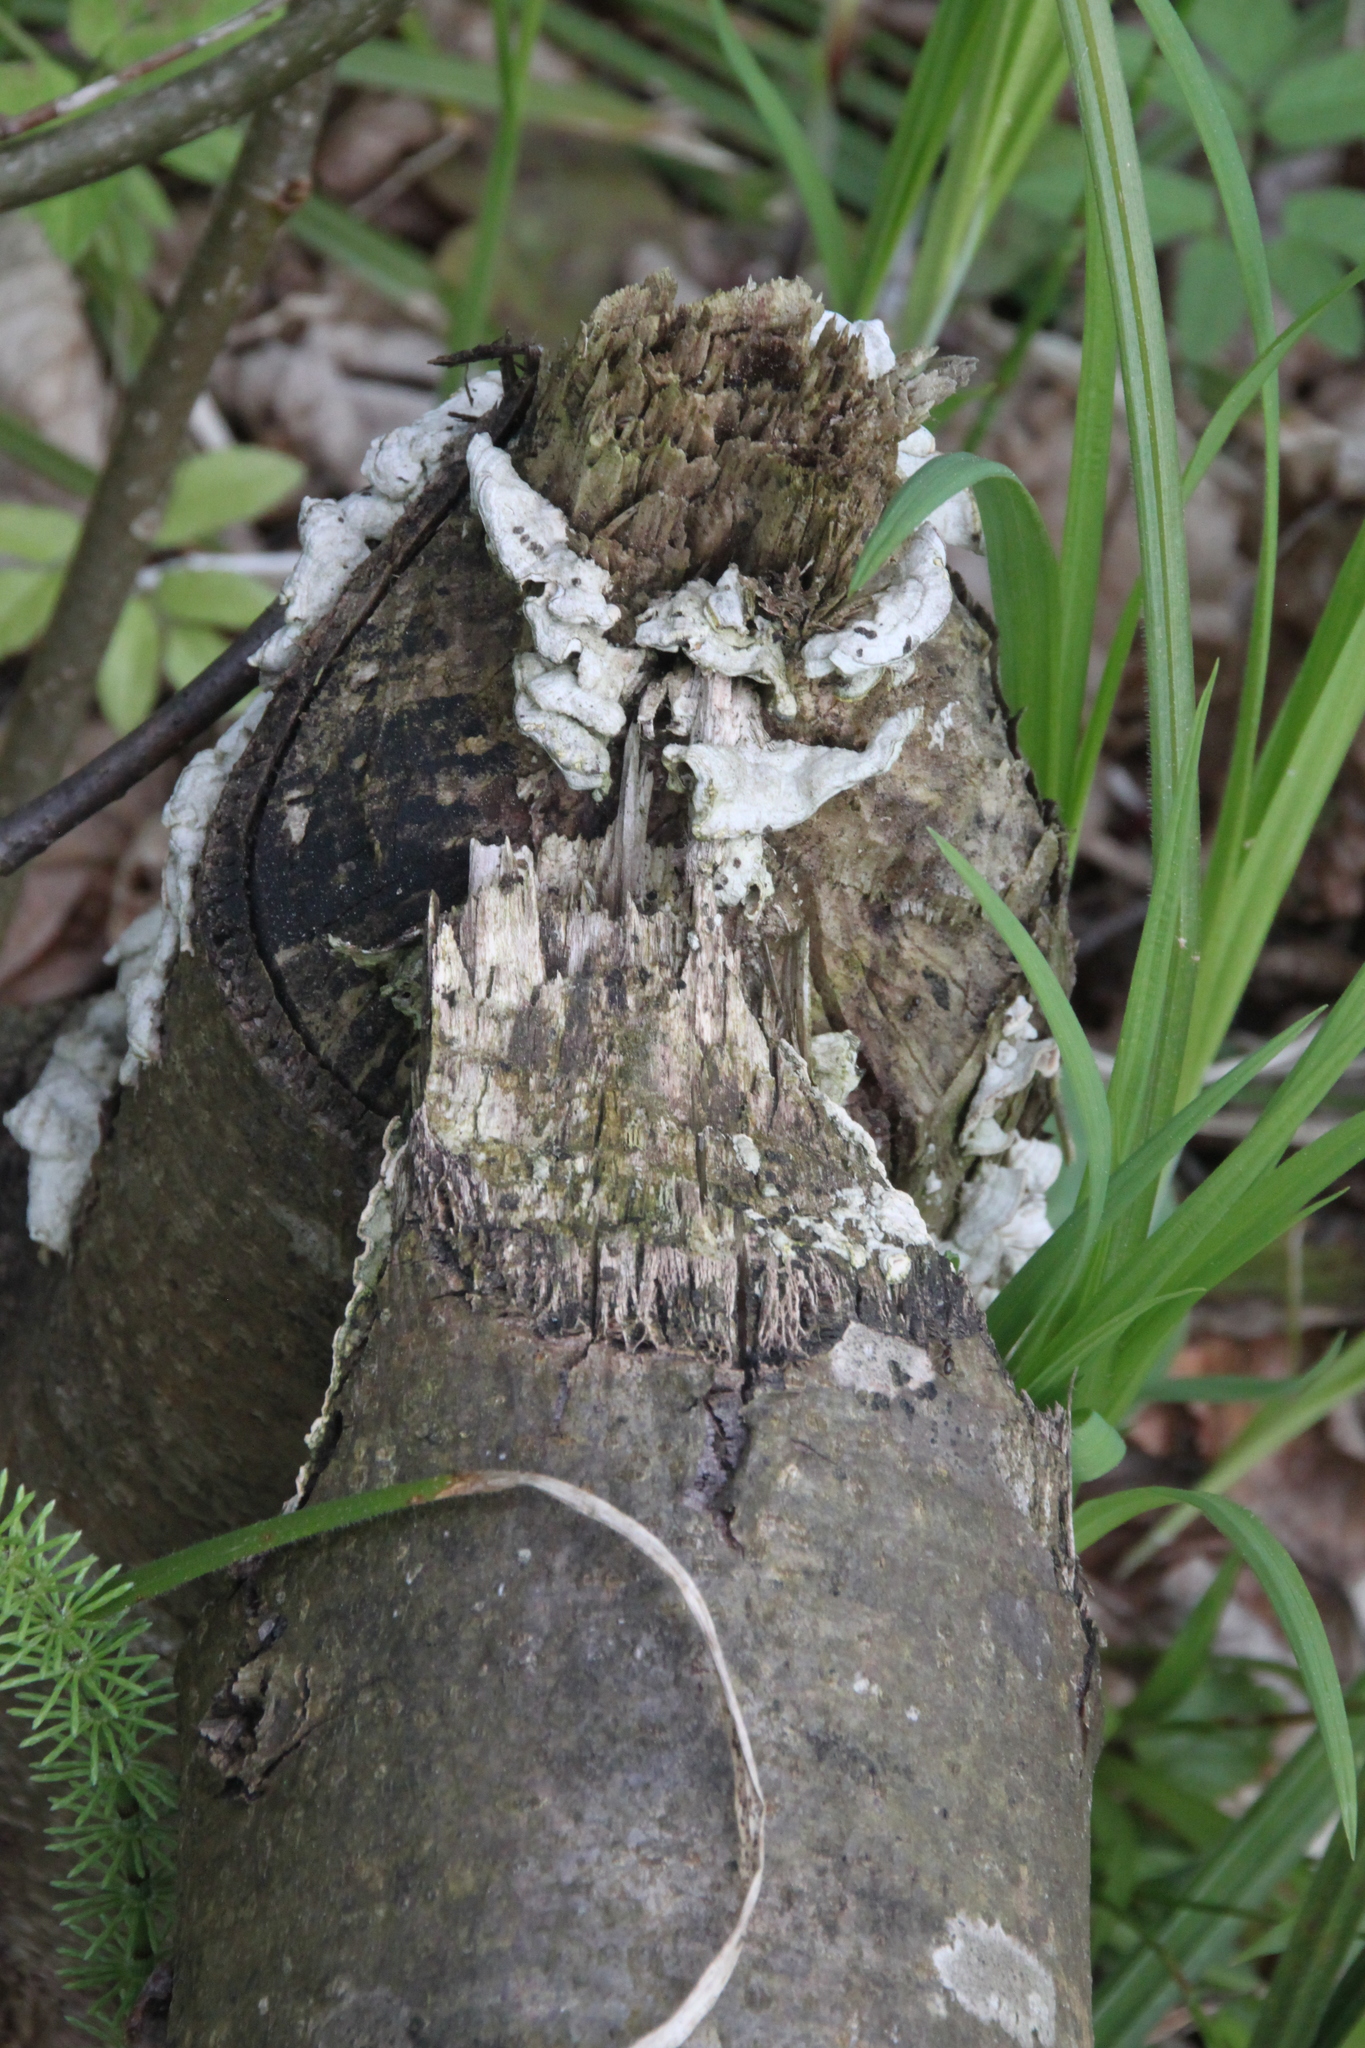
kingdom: Animalia
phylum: Chordata
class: Mammalia
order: Rodentia
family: Castoridae
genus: Castor
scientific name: Castor fiber
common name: Eurasian beaver
